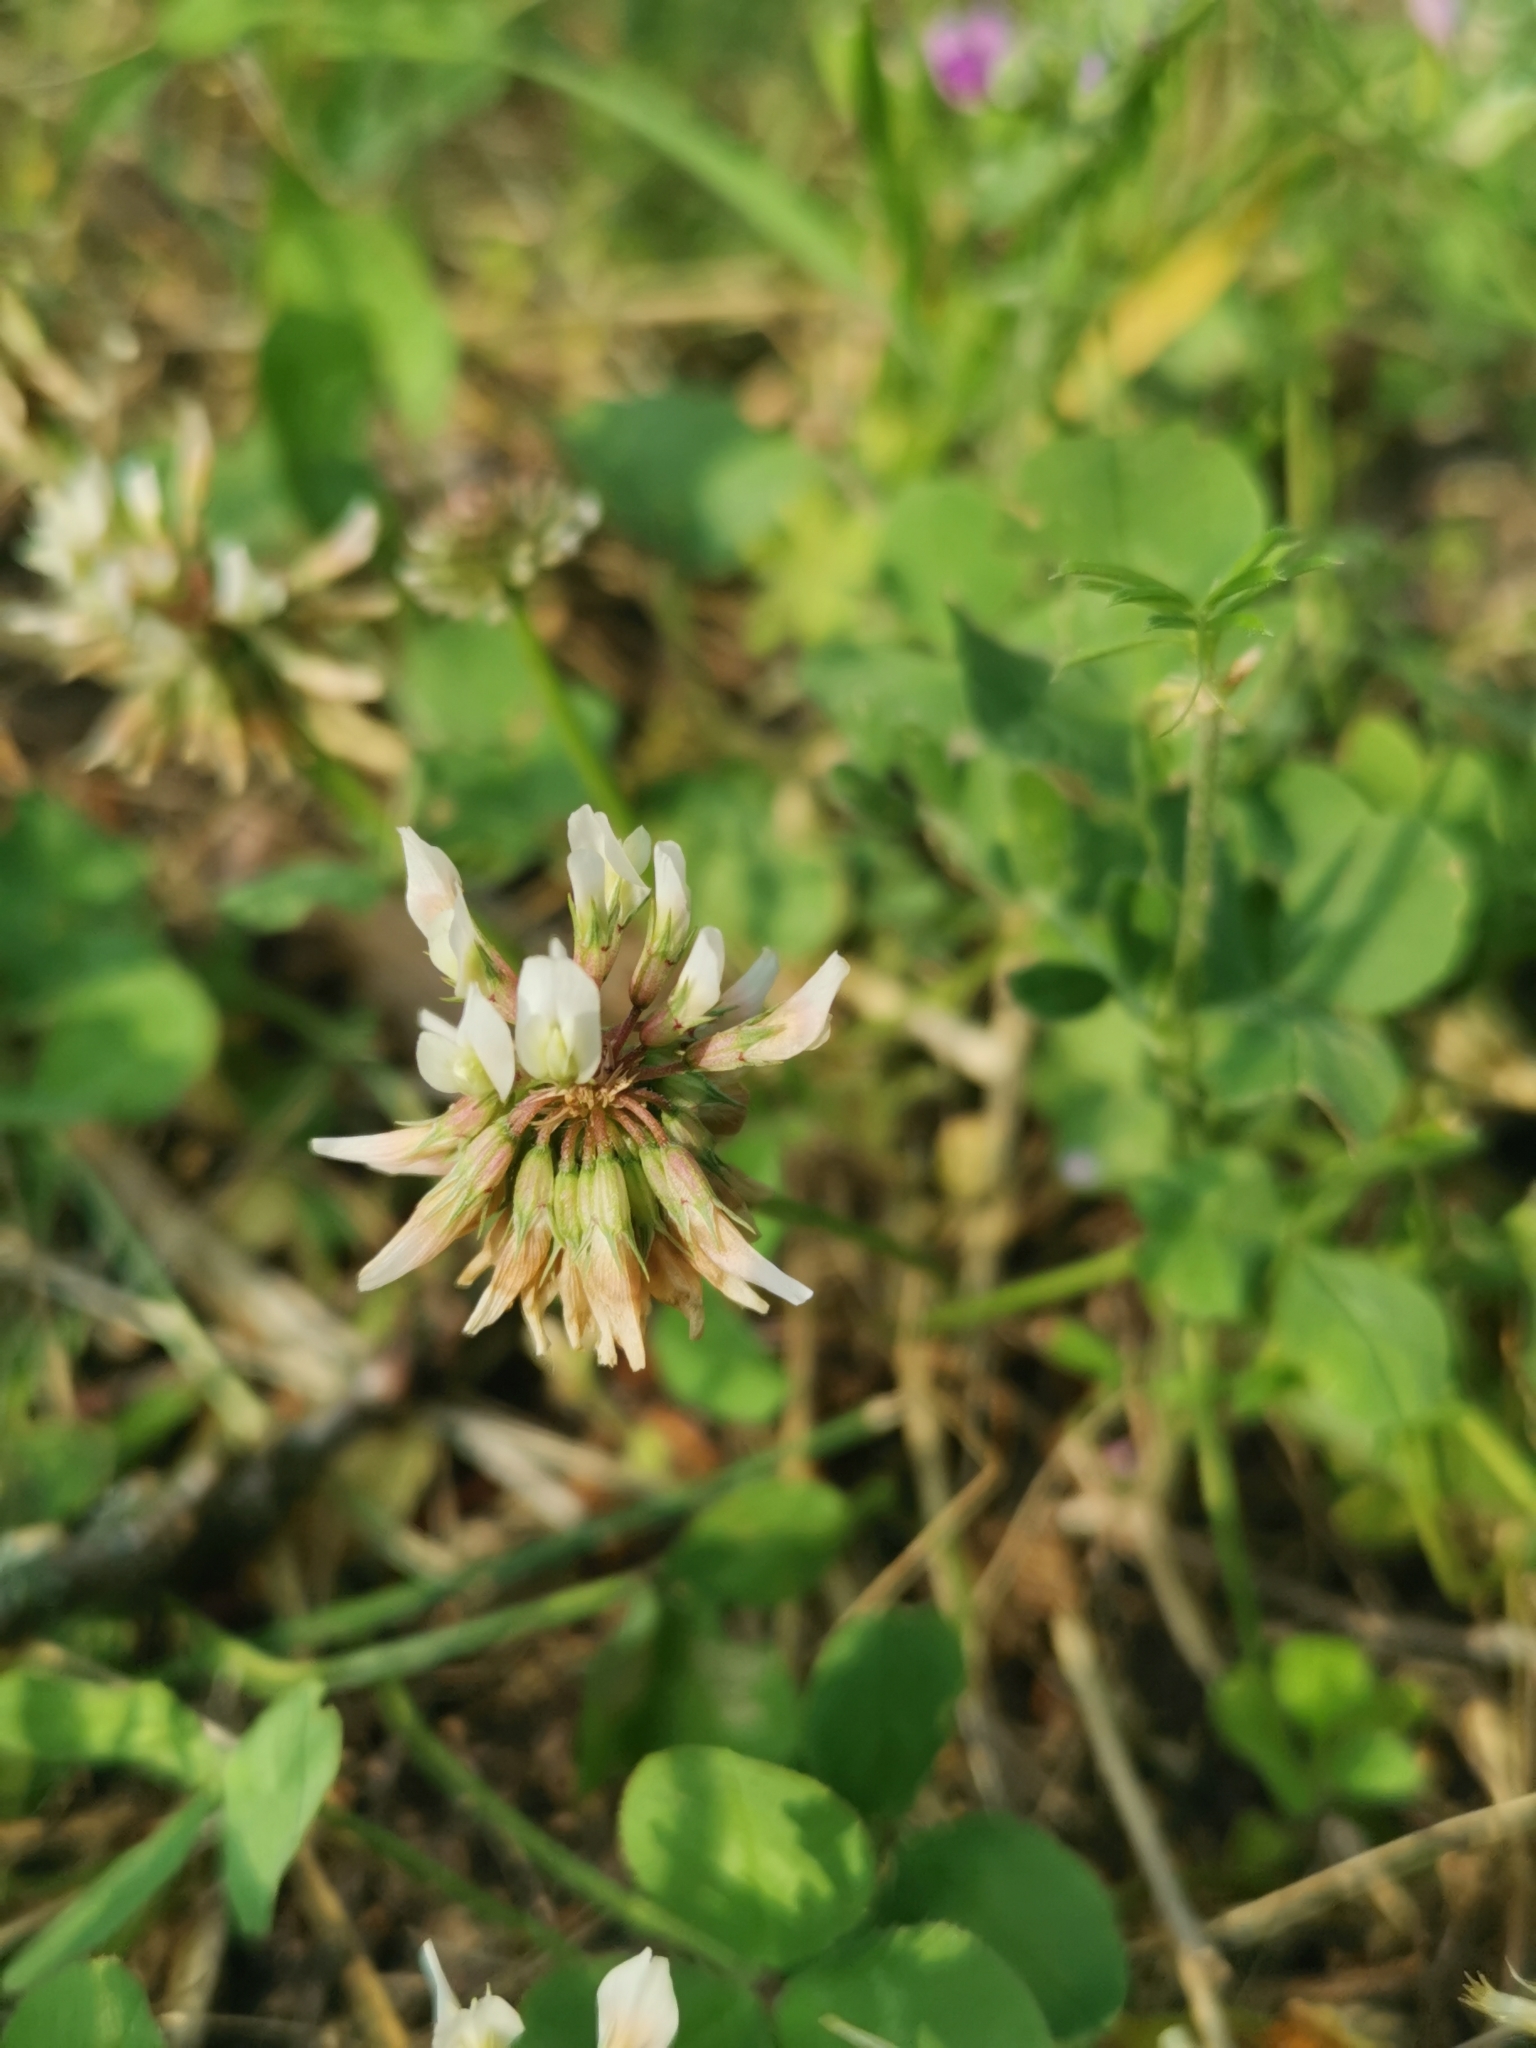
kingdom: Plantae
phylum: Tracheophyta
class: Magnoliopsida
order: Fabales
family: Fabaceae
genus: Trifolium
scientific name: Trifolium repens
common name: White clover
